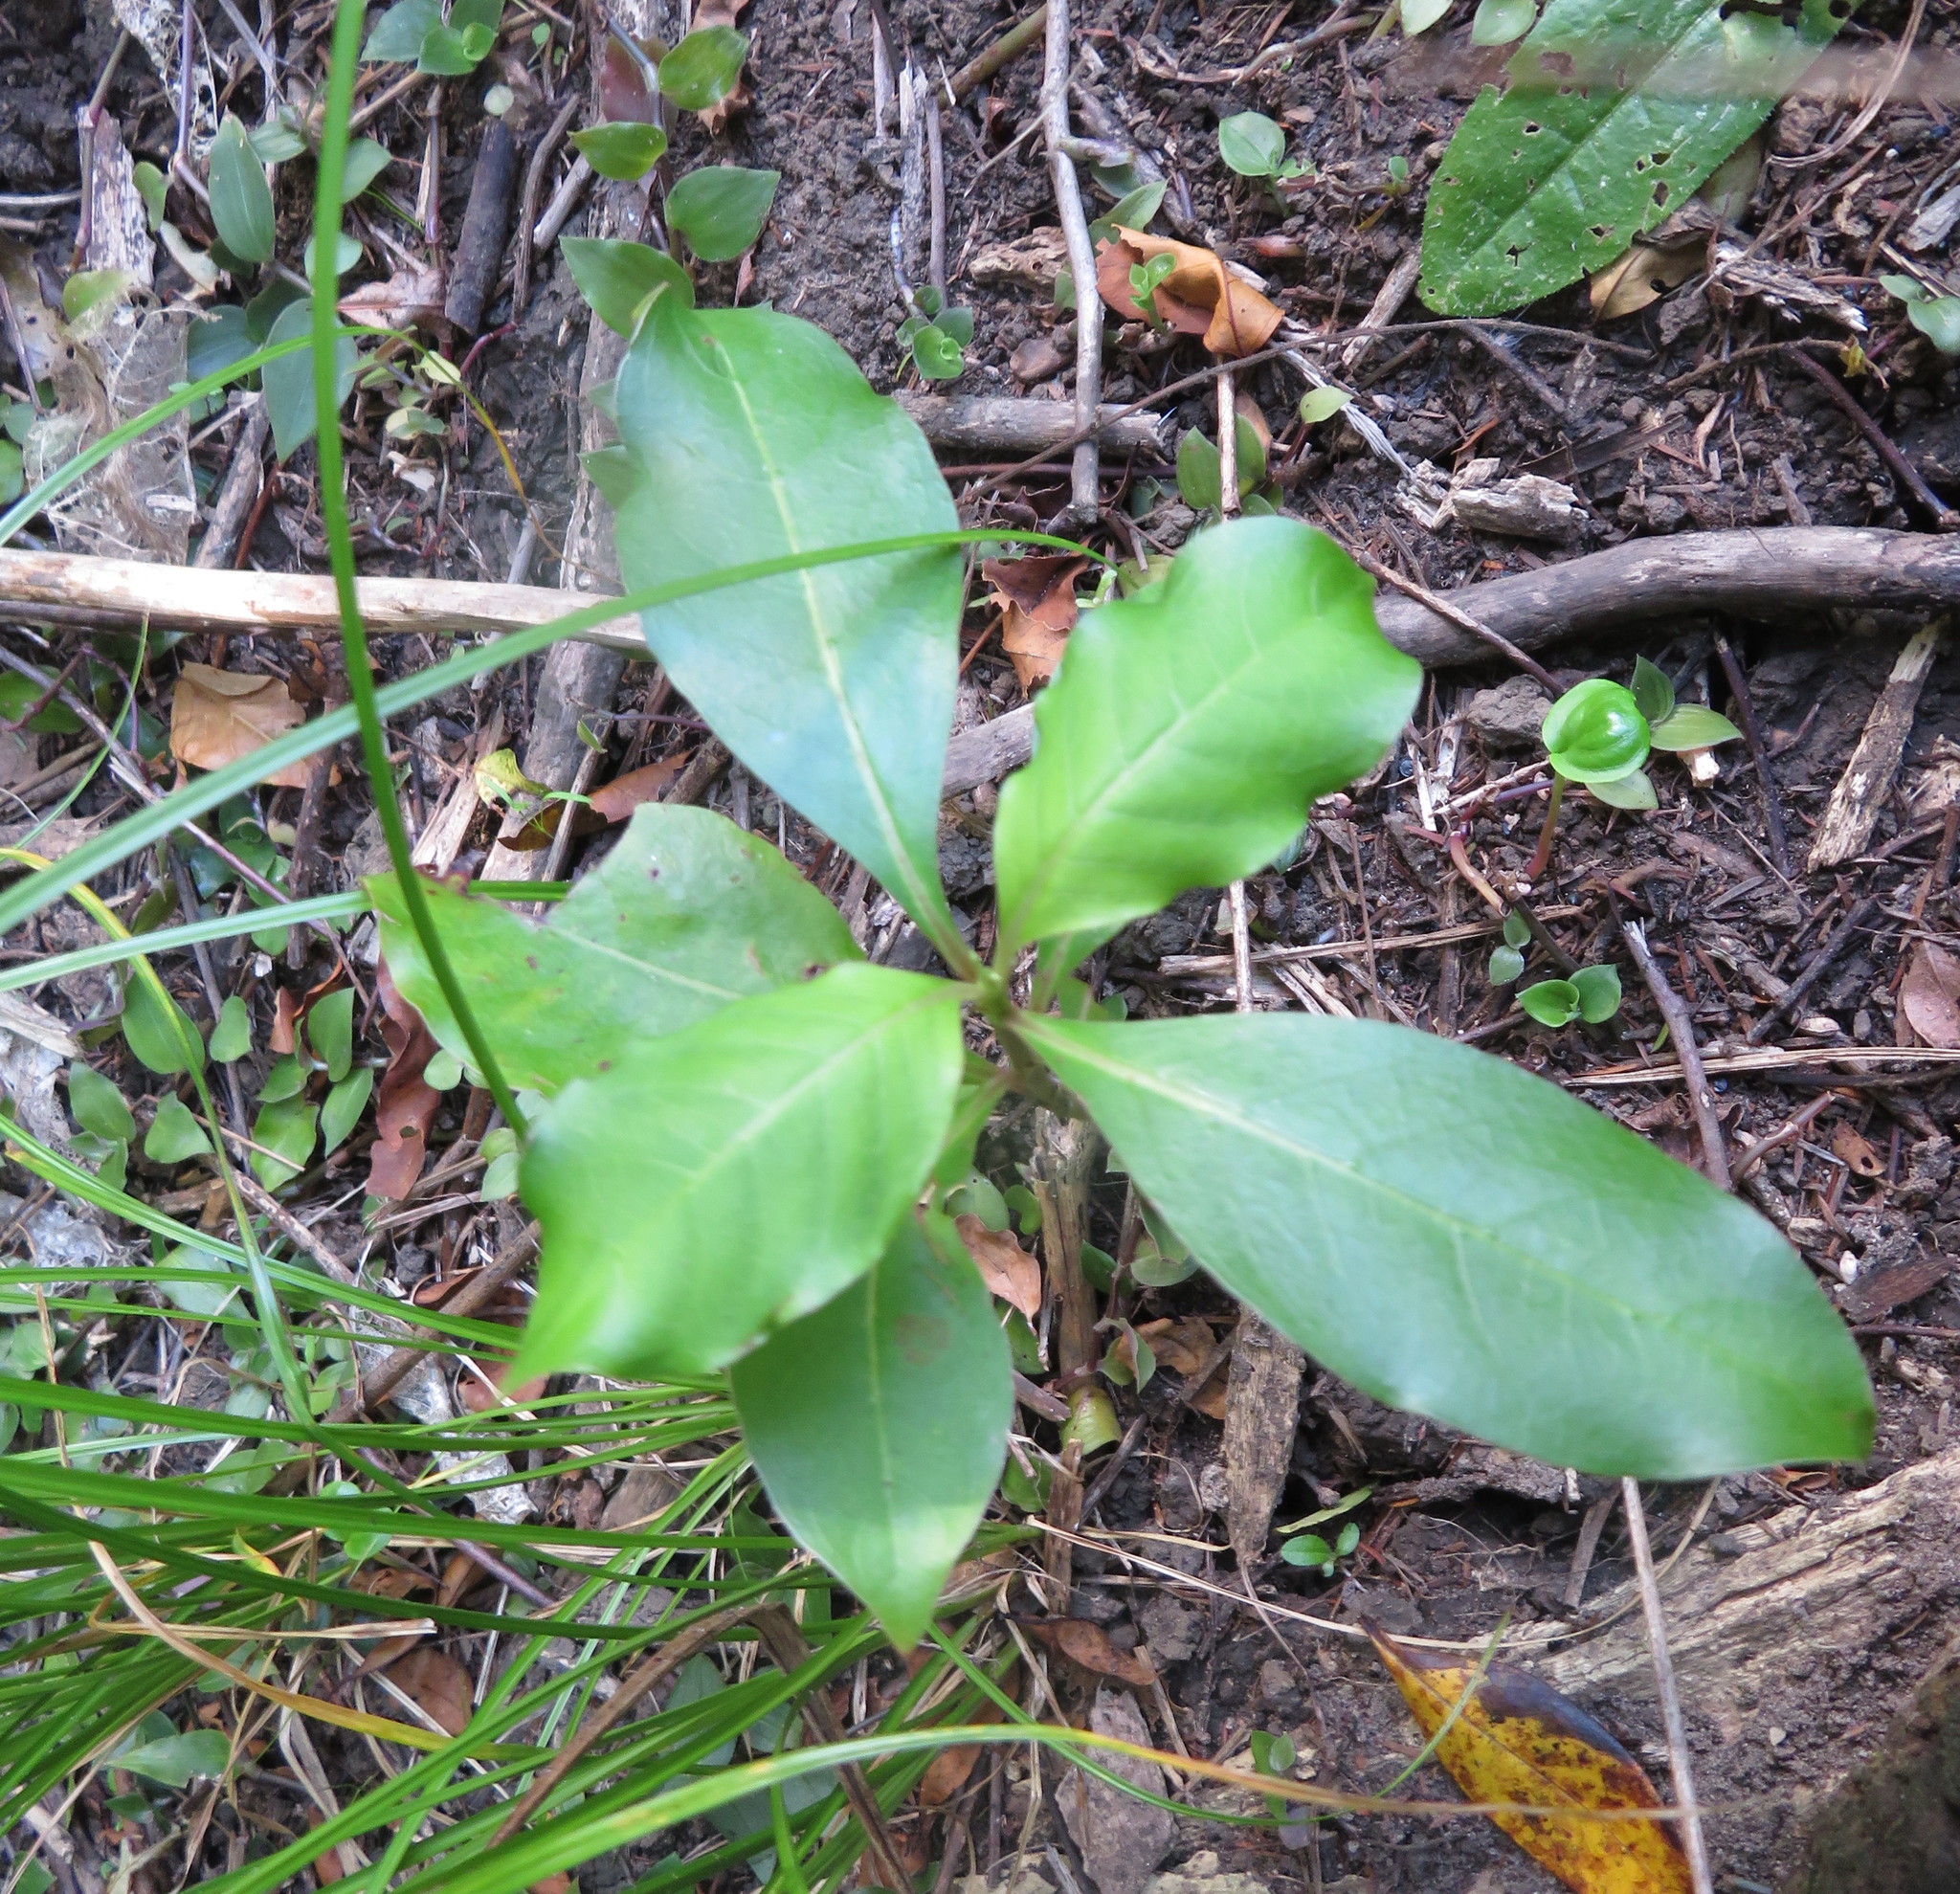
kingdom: Plantae
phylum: Tracheophyta
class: Magnoliopsida
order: Gentianales
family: Rubiaceae
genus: Coprosma
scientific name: Coprosma macrocarpa
